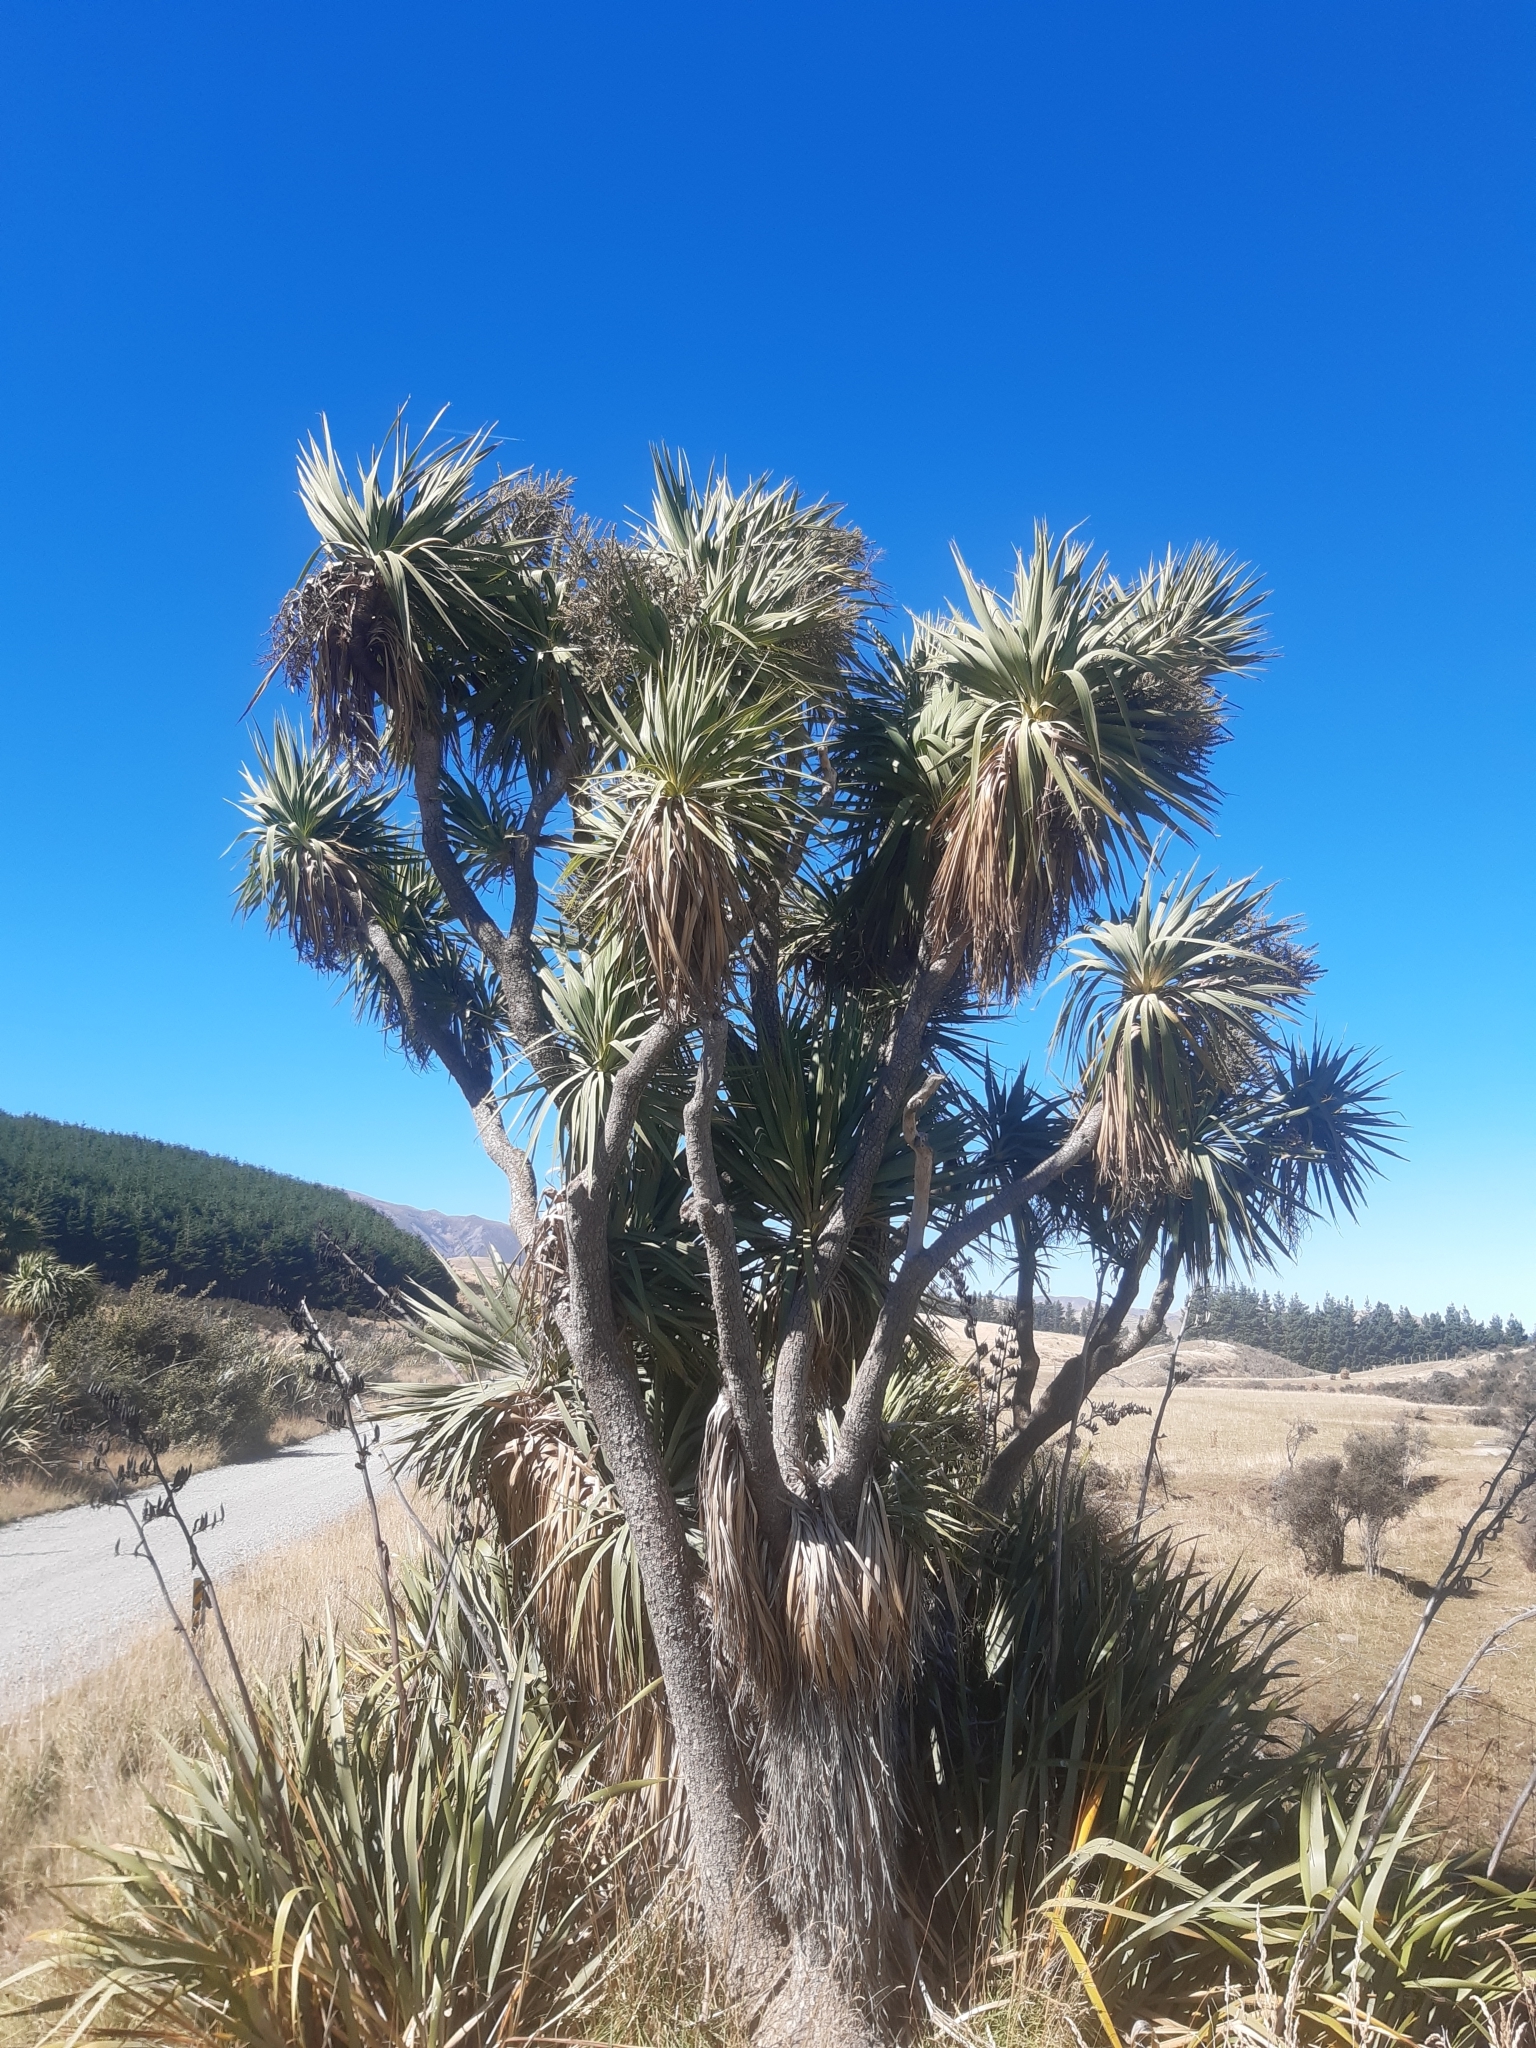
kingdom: Plantae
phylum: Tracheophyta
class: Liliopsida
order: Asparagales
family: Asparagaceae
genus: Cordyline
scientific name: Cordyline australis
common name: Cabbage-palm
